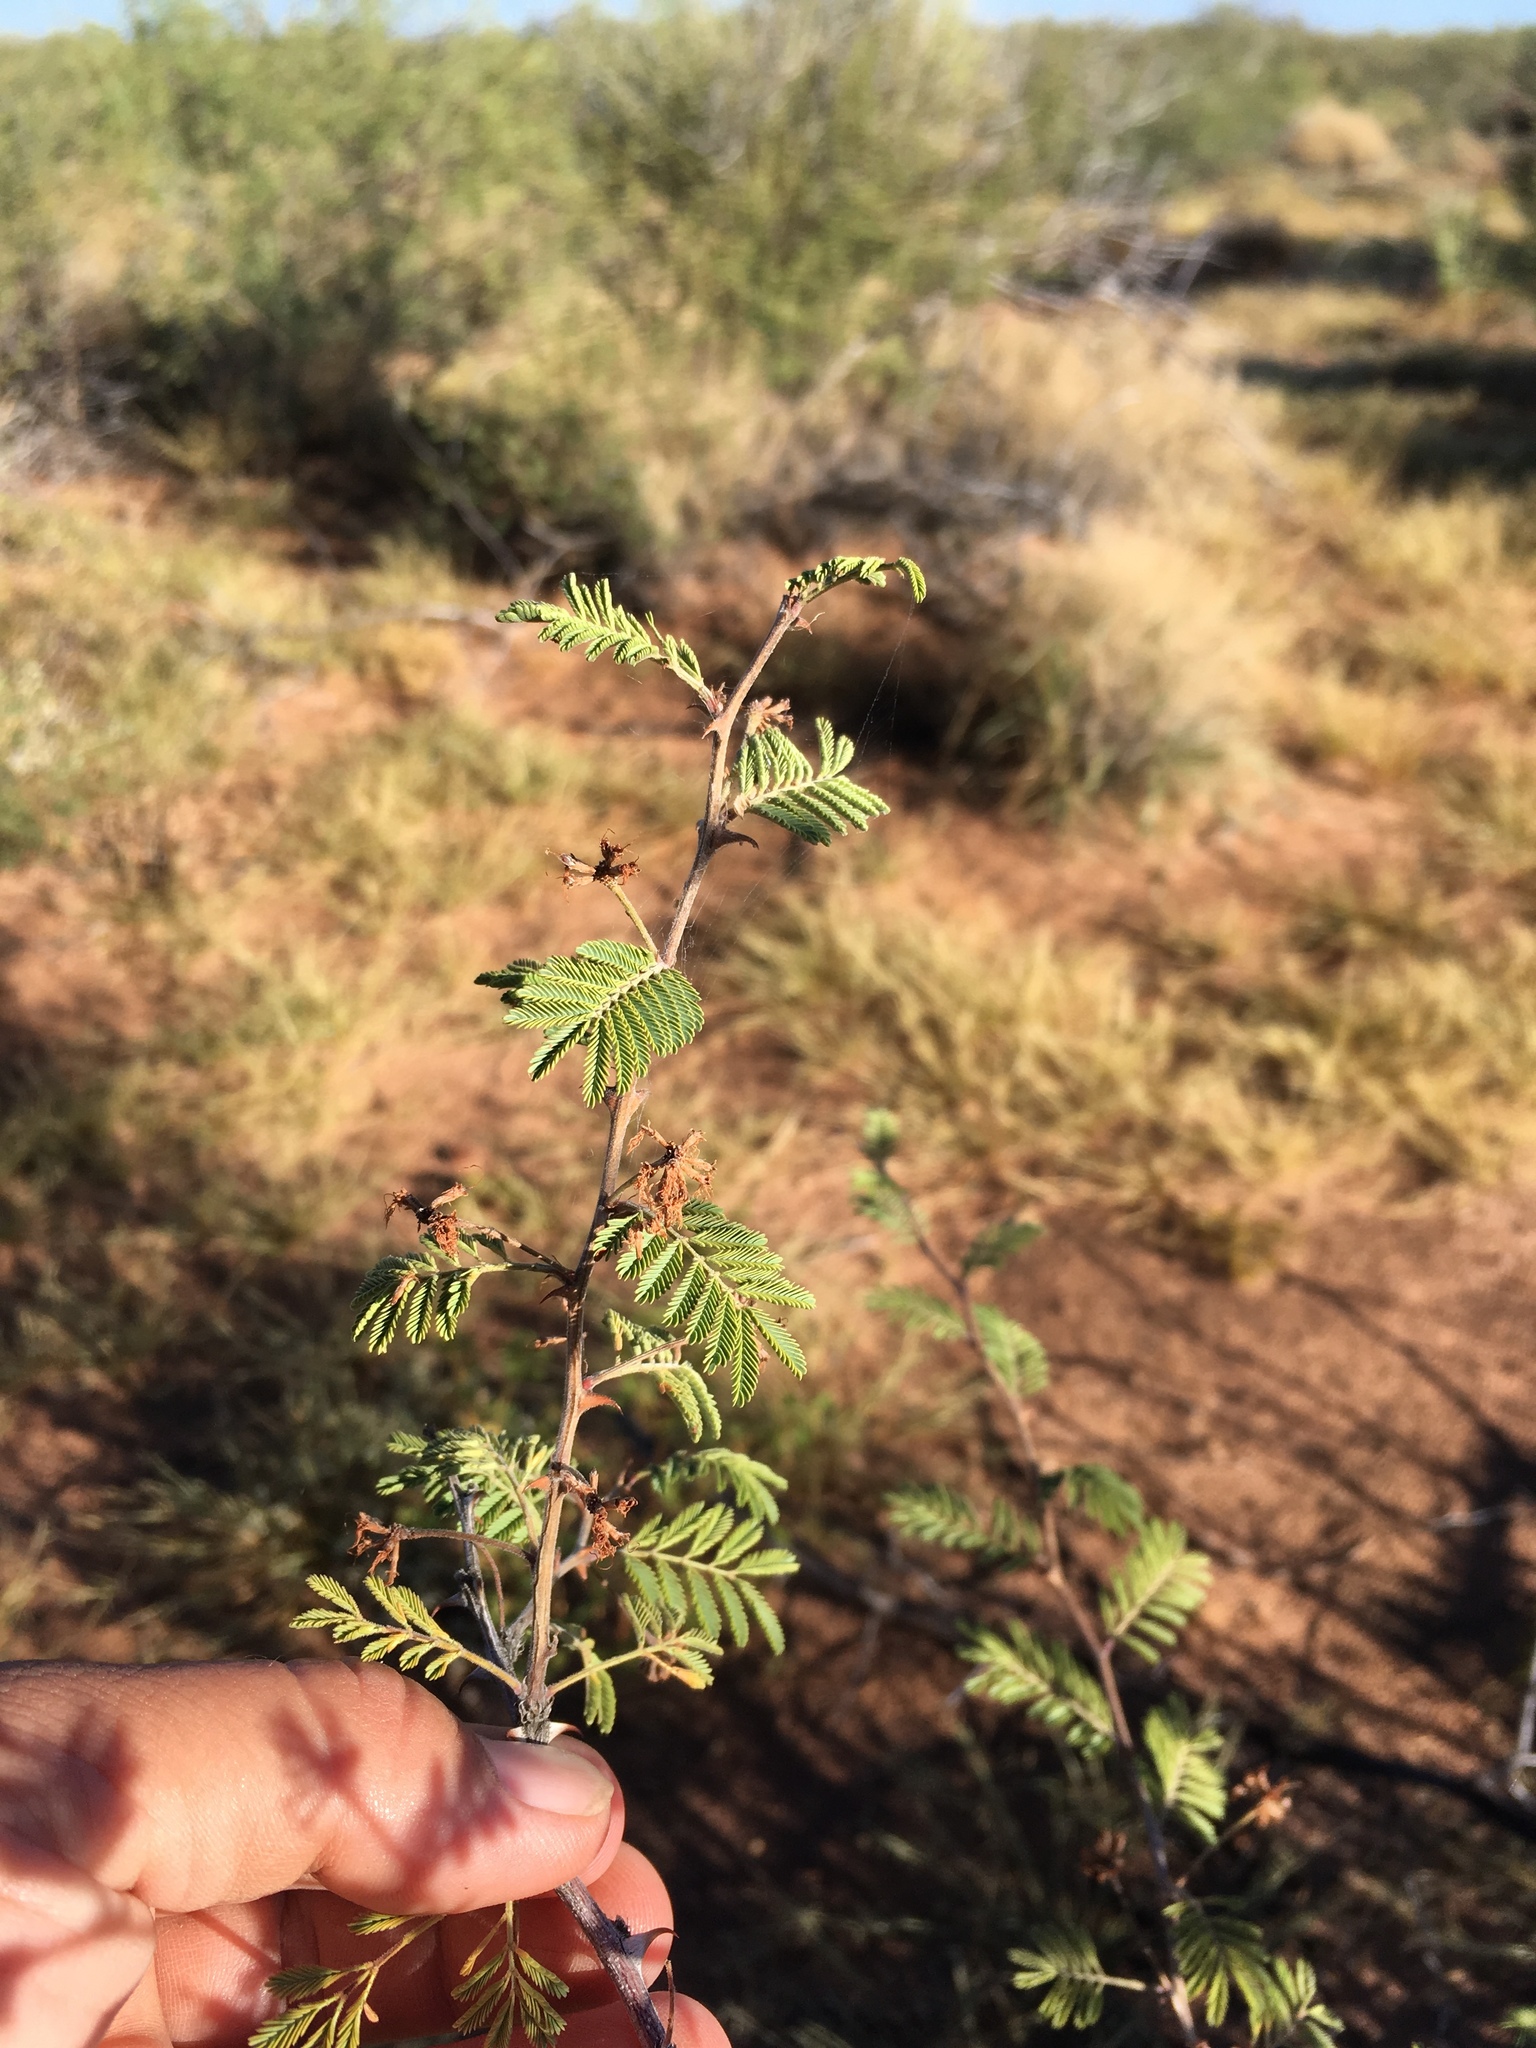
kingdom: Plantae
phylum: Tracheophyta
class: Magnoliopsida
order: Fabales
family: Fabaceae
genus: Mimosa
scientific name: Mimosa biuncifera
